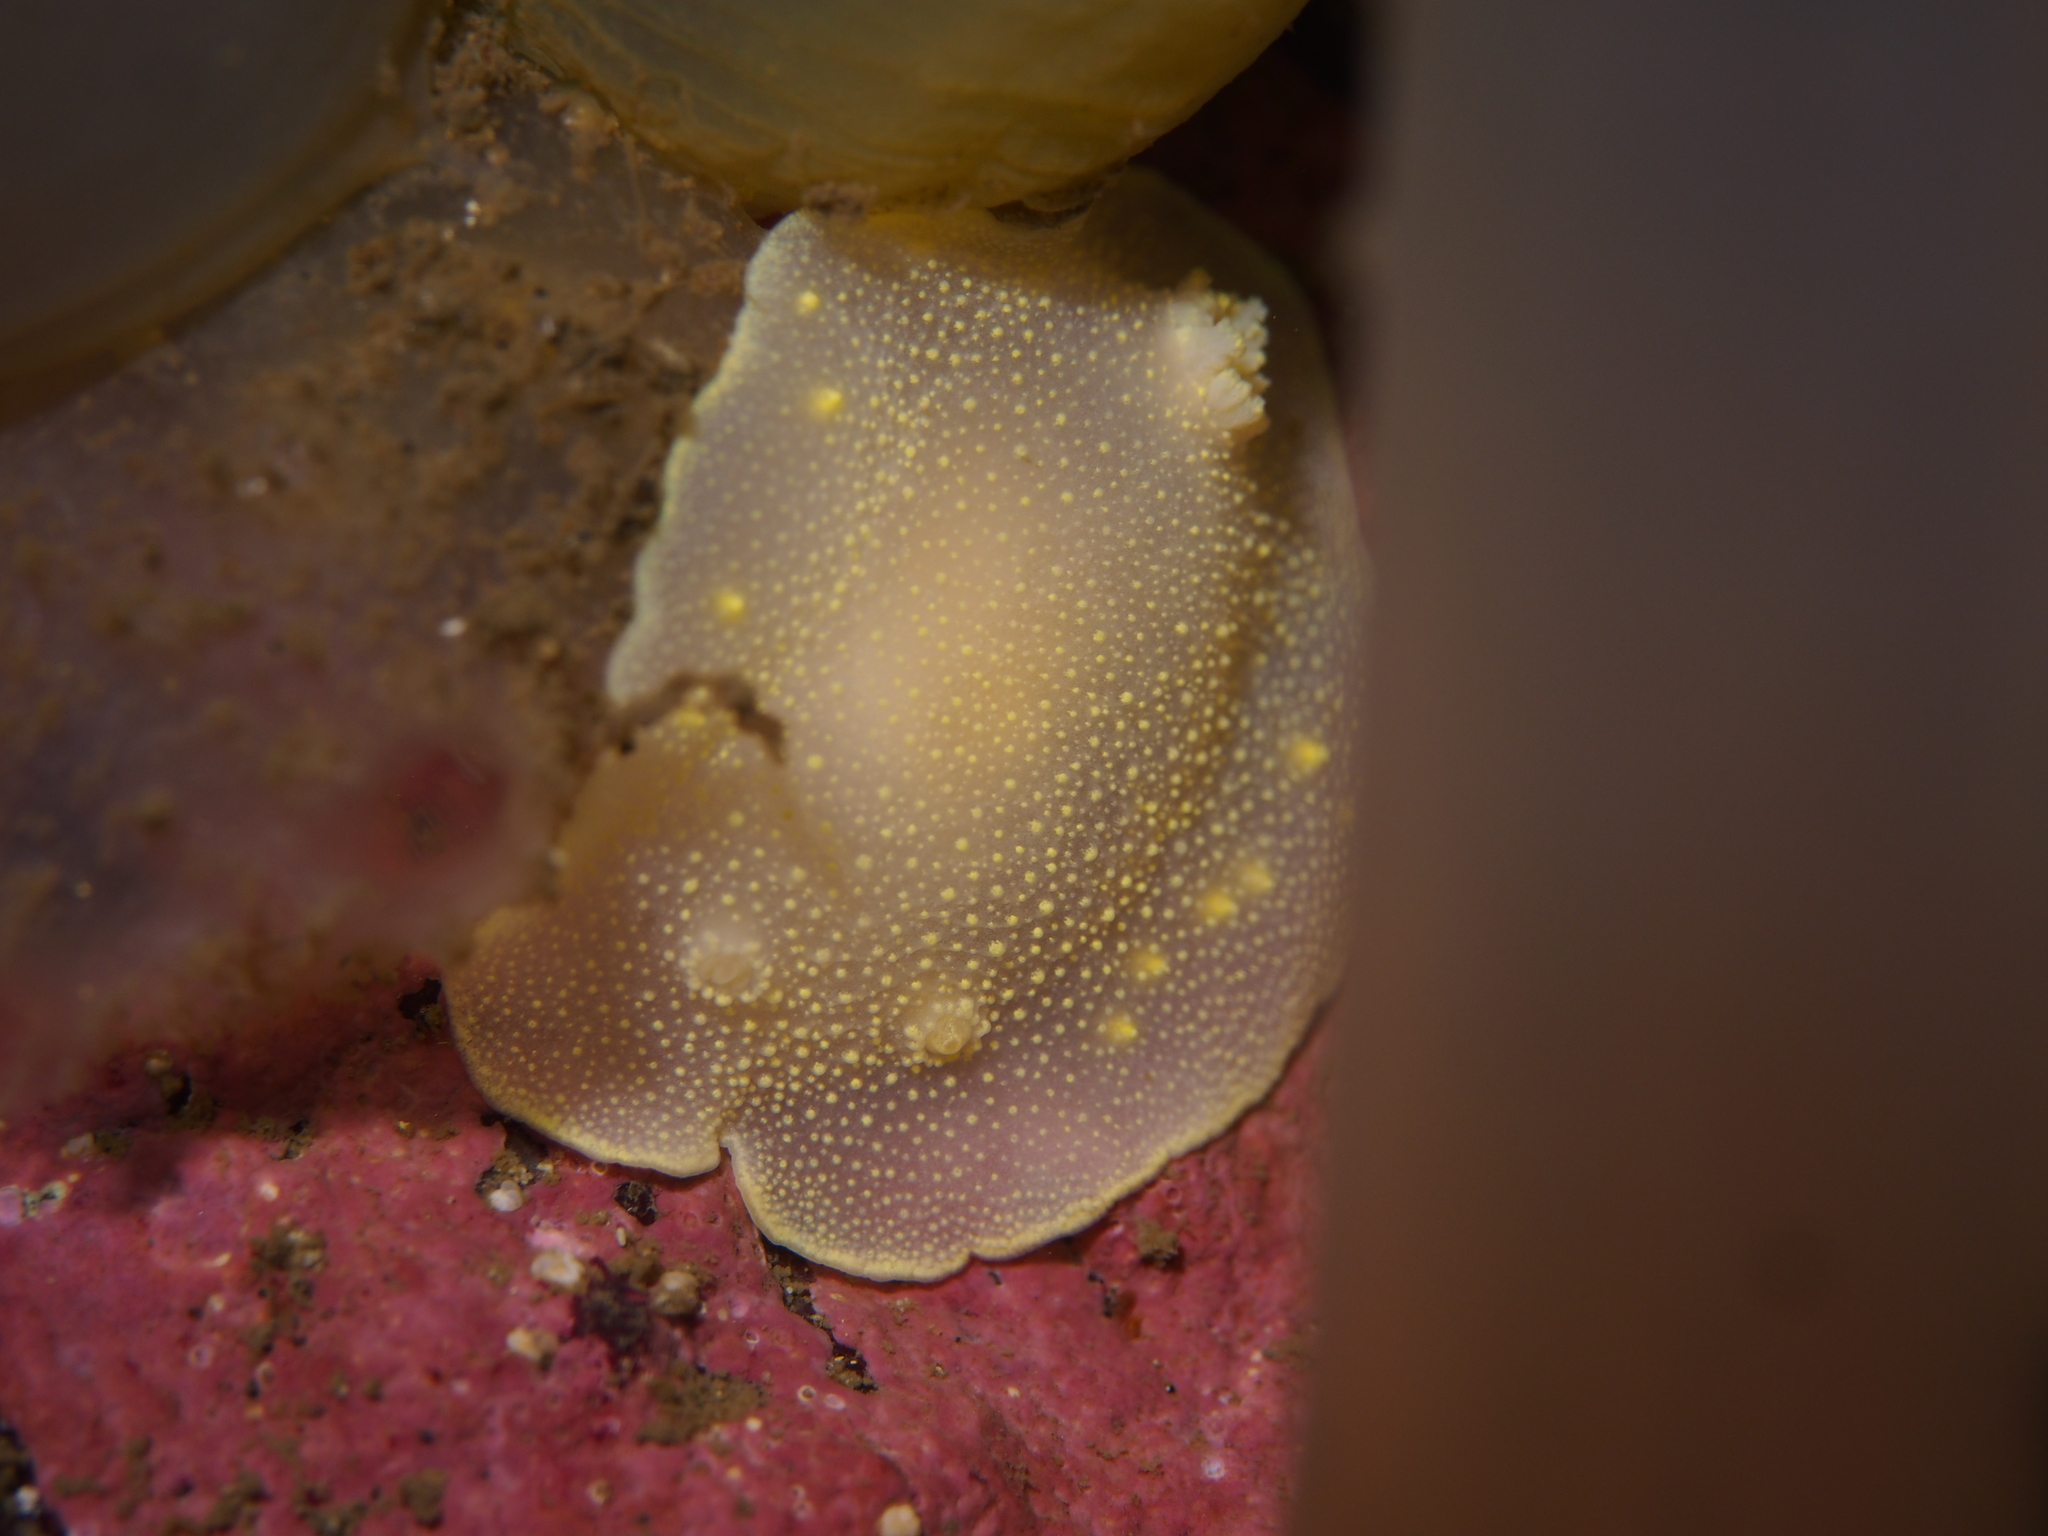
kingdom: Animalia
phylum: Mollusca
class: Gastropoda
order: Nudibranchia
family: Cadlinidae
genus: Cadlina
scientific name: Cadlina laevis
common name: White atlantic cadlina
